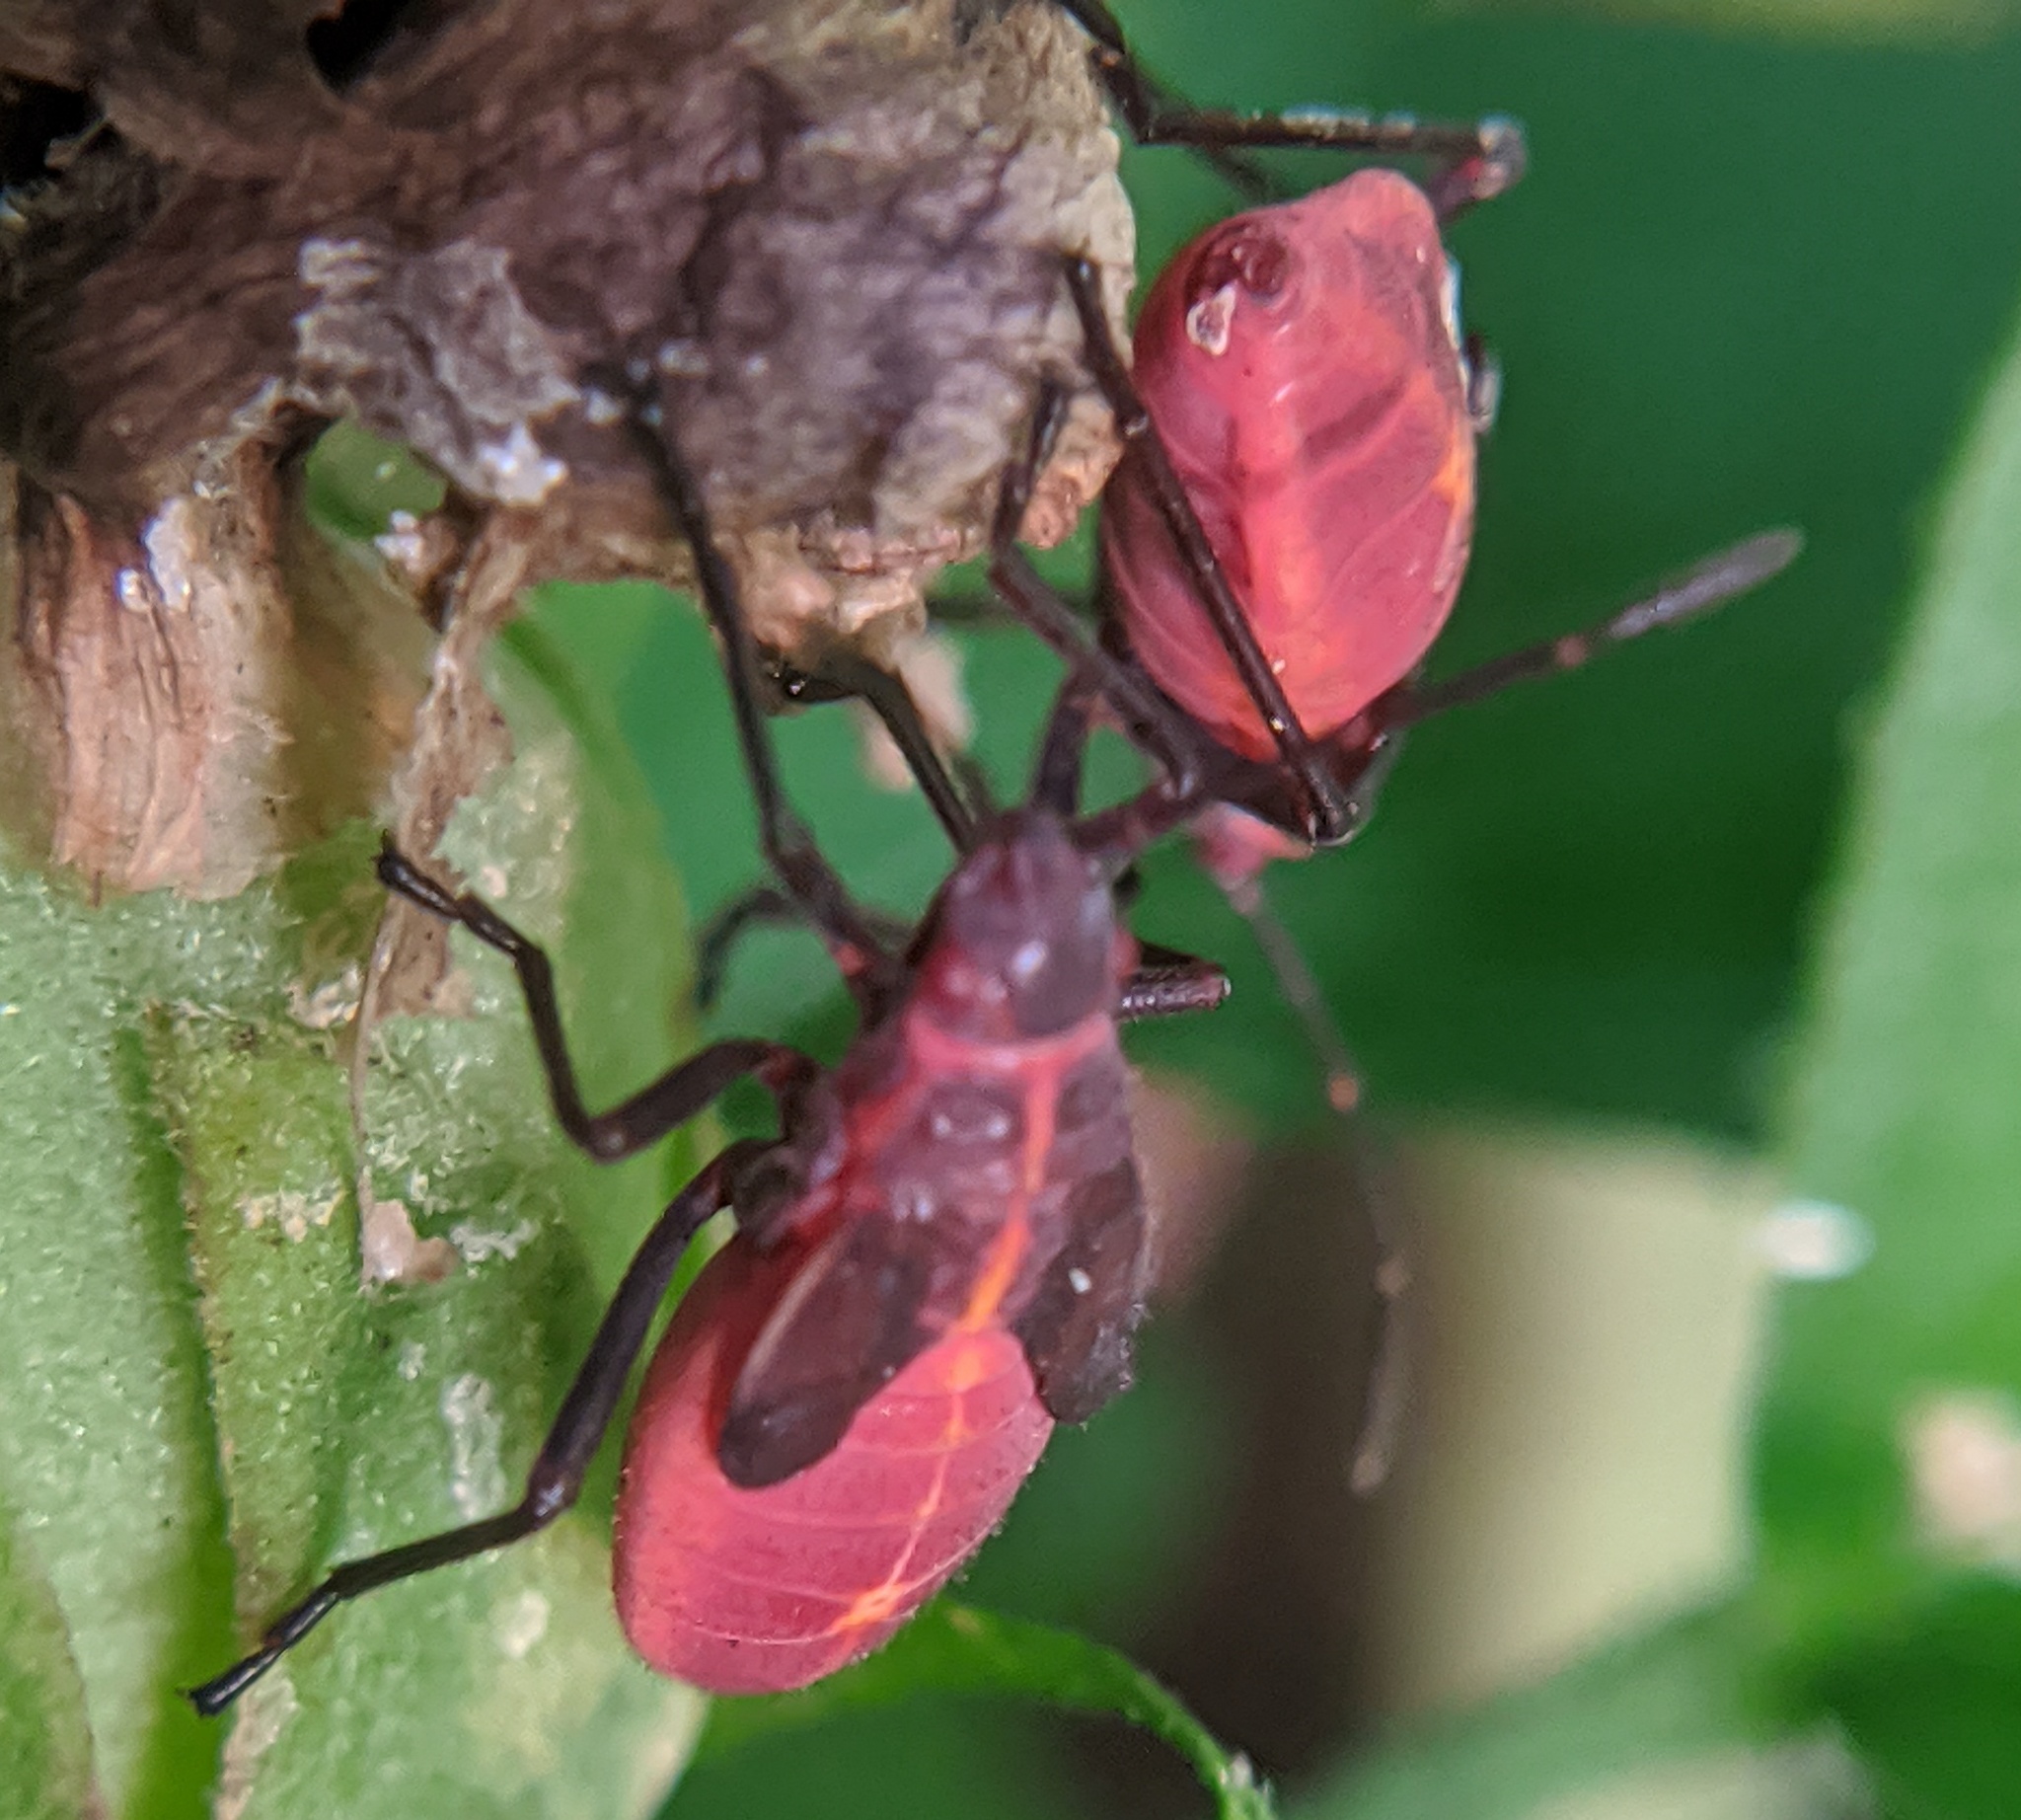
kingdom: Animalia
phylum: Arthropoda
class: Insecta
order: Hemiptera
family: Rhopalidae
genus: Boisea
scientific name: Boisea trivittata
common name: Boxelder bug
